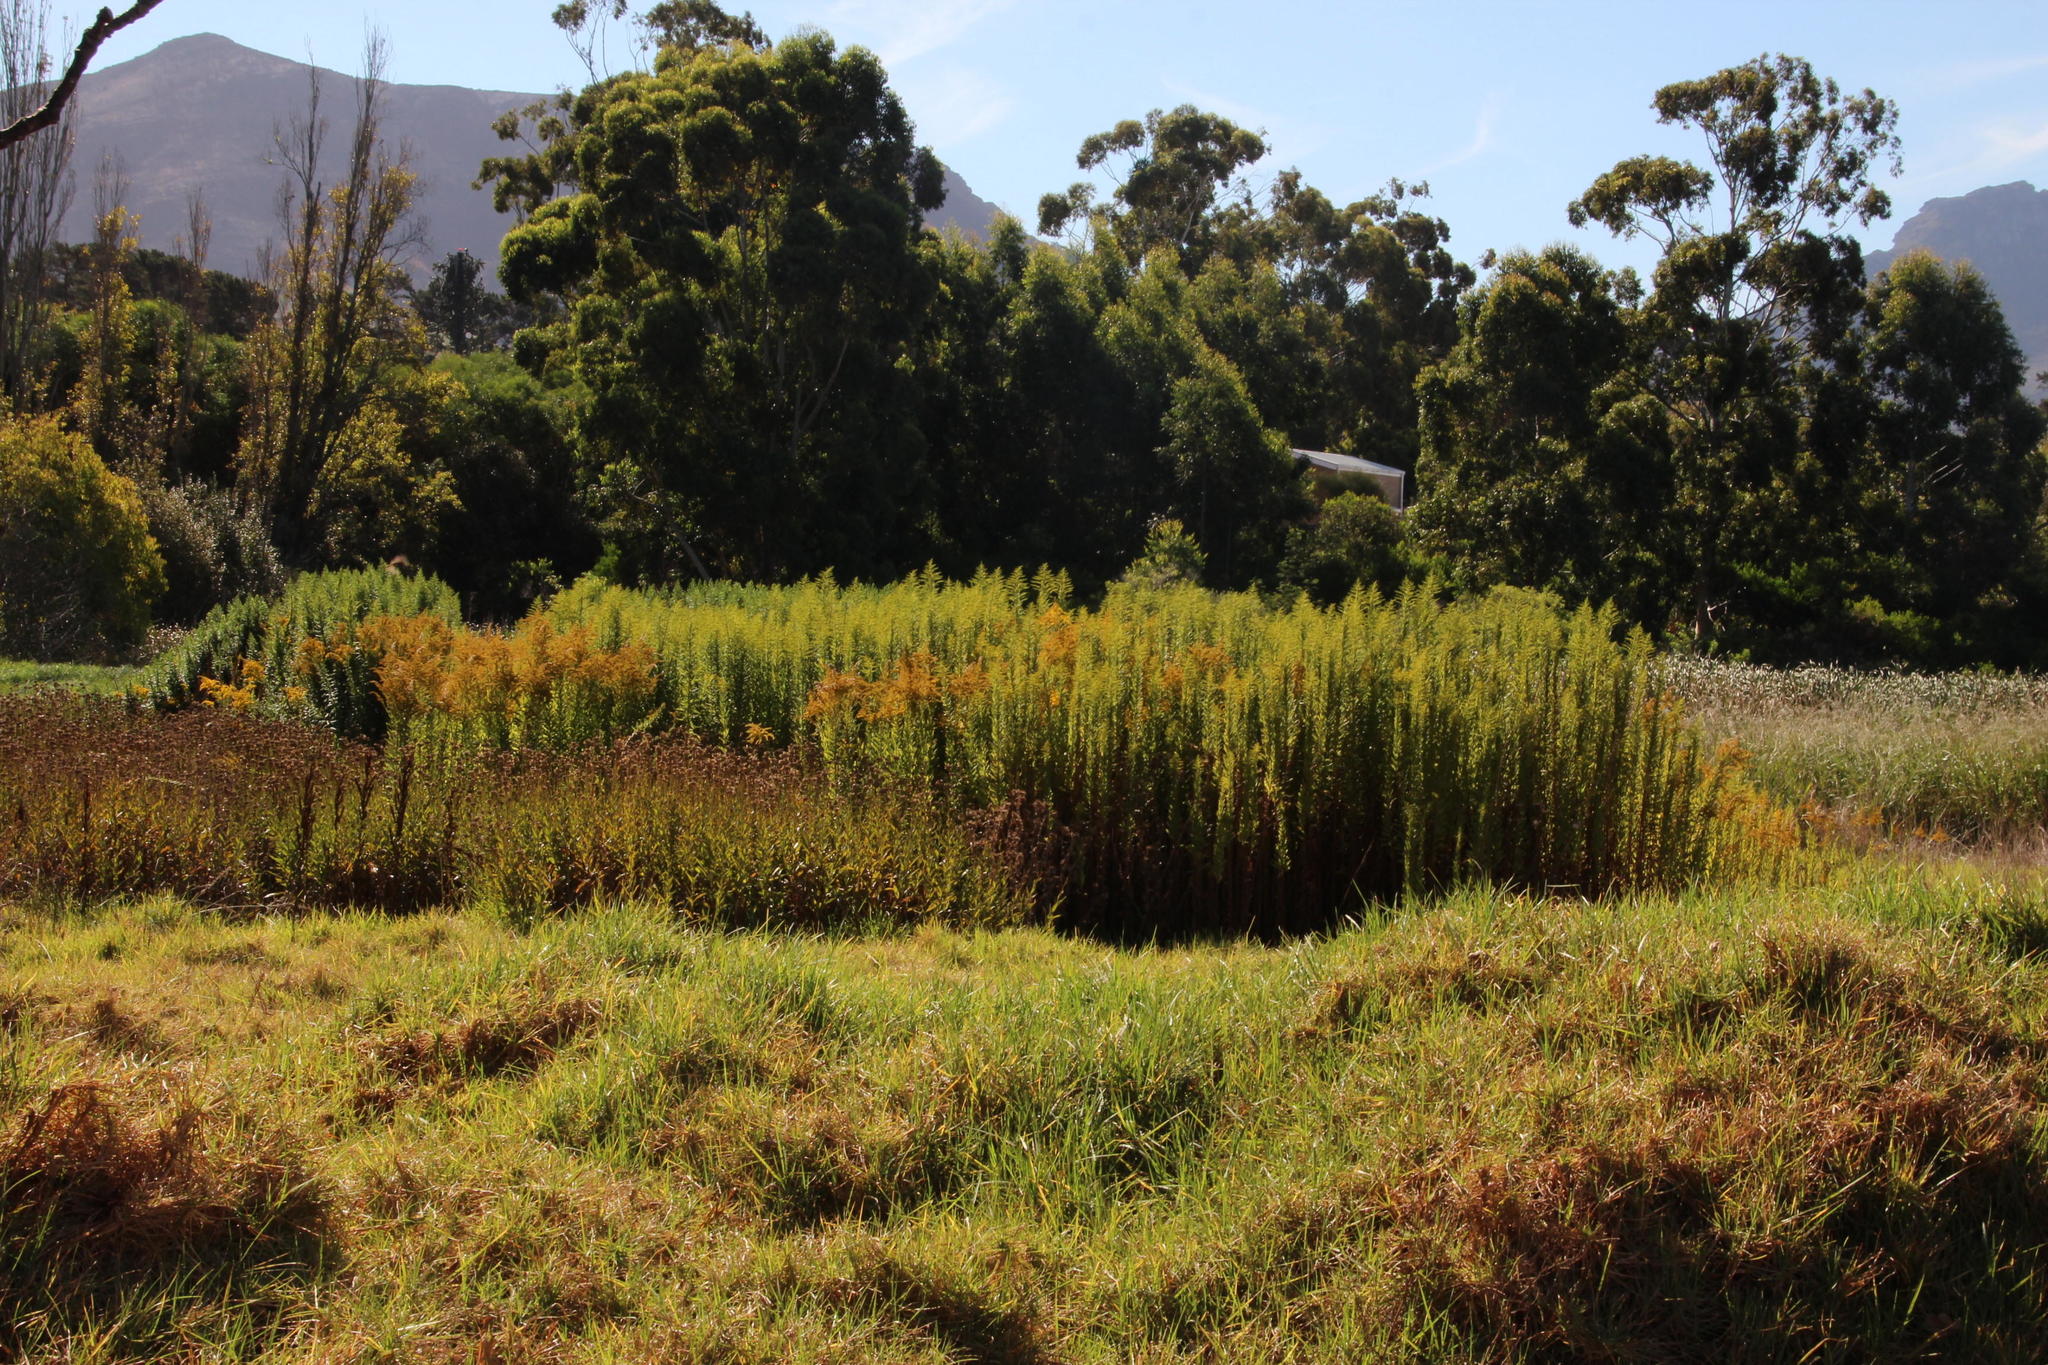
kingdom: Plantae
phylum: Tracheophyta
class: Magnoliopsida
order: Asterales
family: Asteraceae
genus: Solidago
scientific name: Solidago altissima
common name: Late goldenrod
